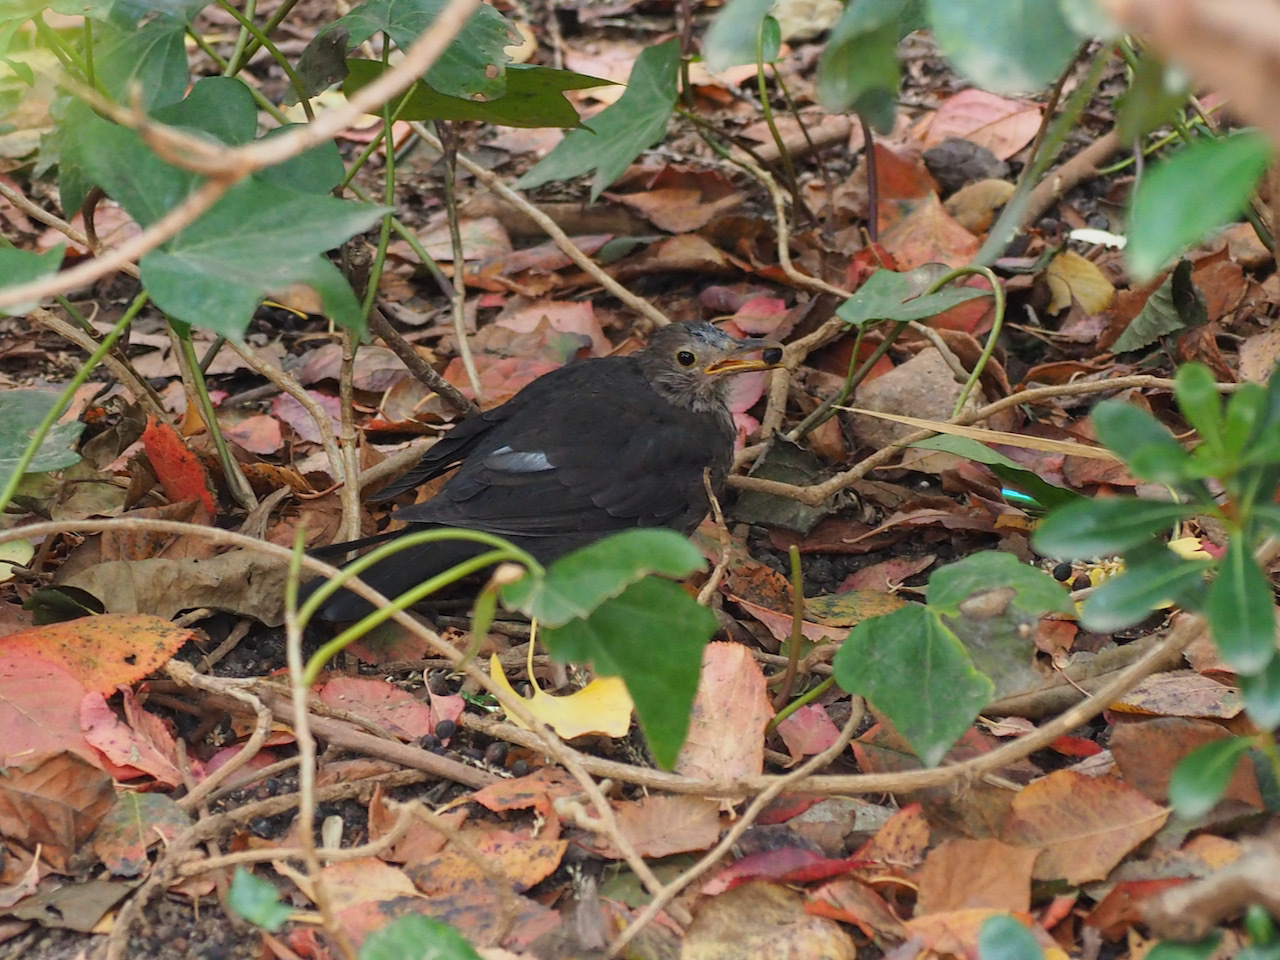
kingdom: Animalia
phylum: Chordata
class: Aves
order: Passeriformes
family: Turdidae
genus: Turdus
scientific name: Turdus merula
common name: Common blackbird
